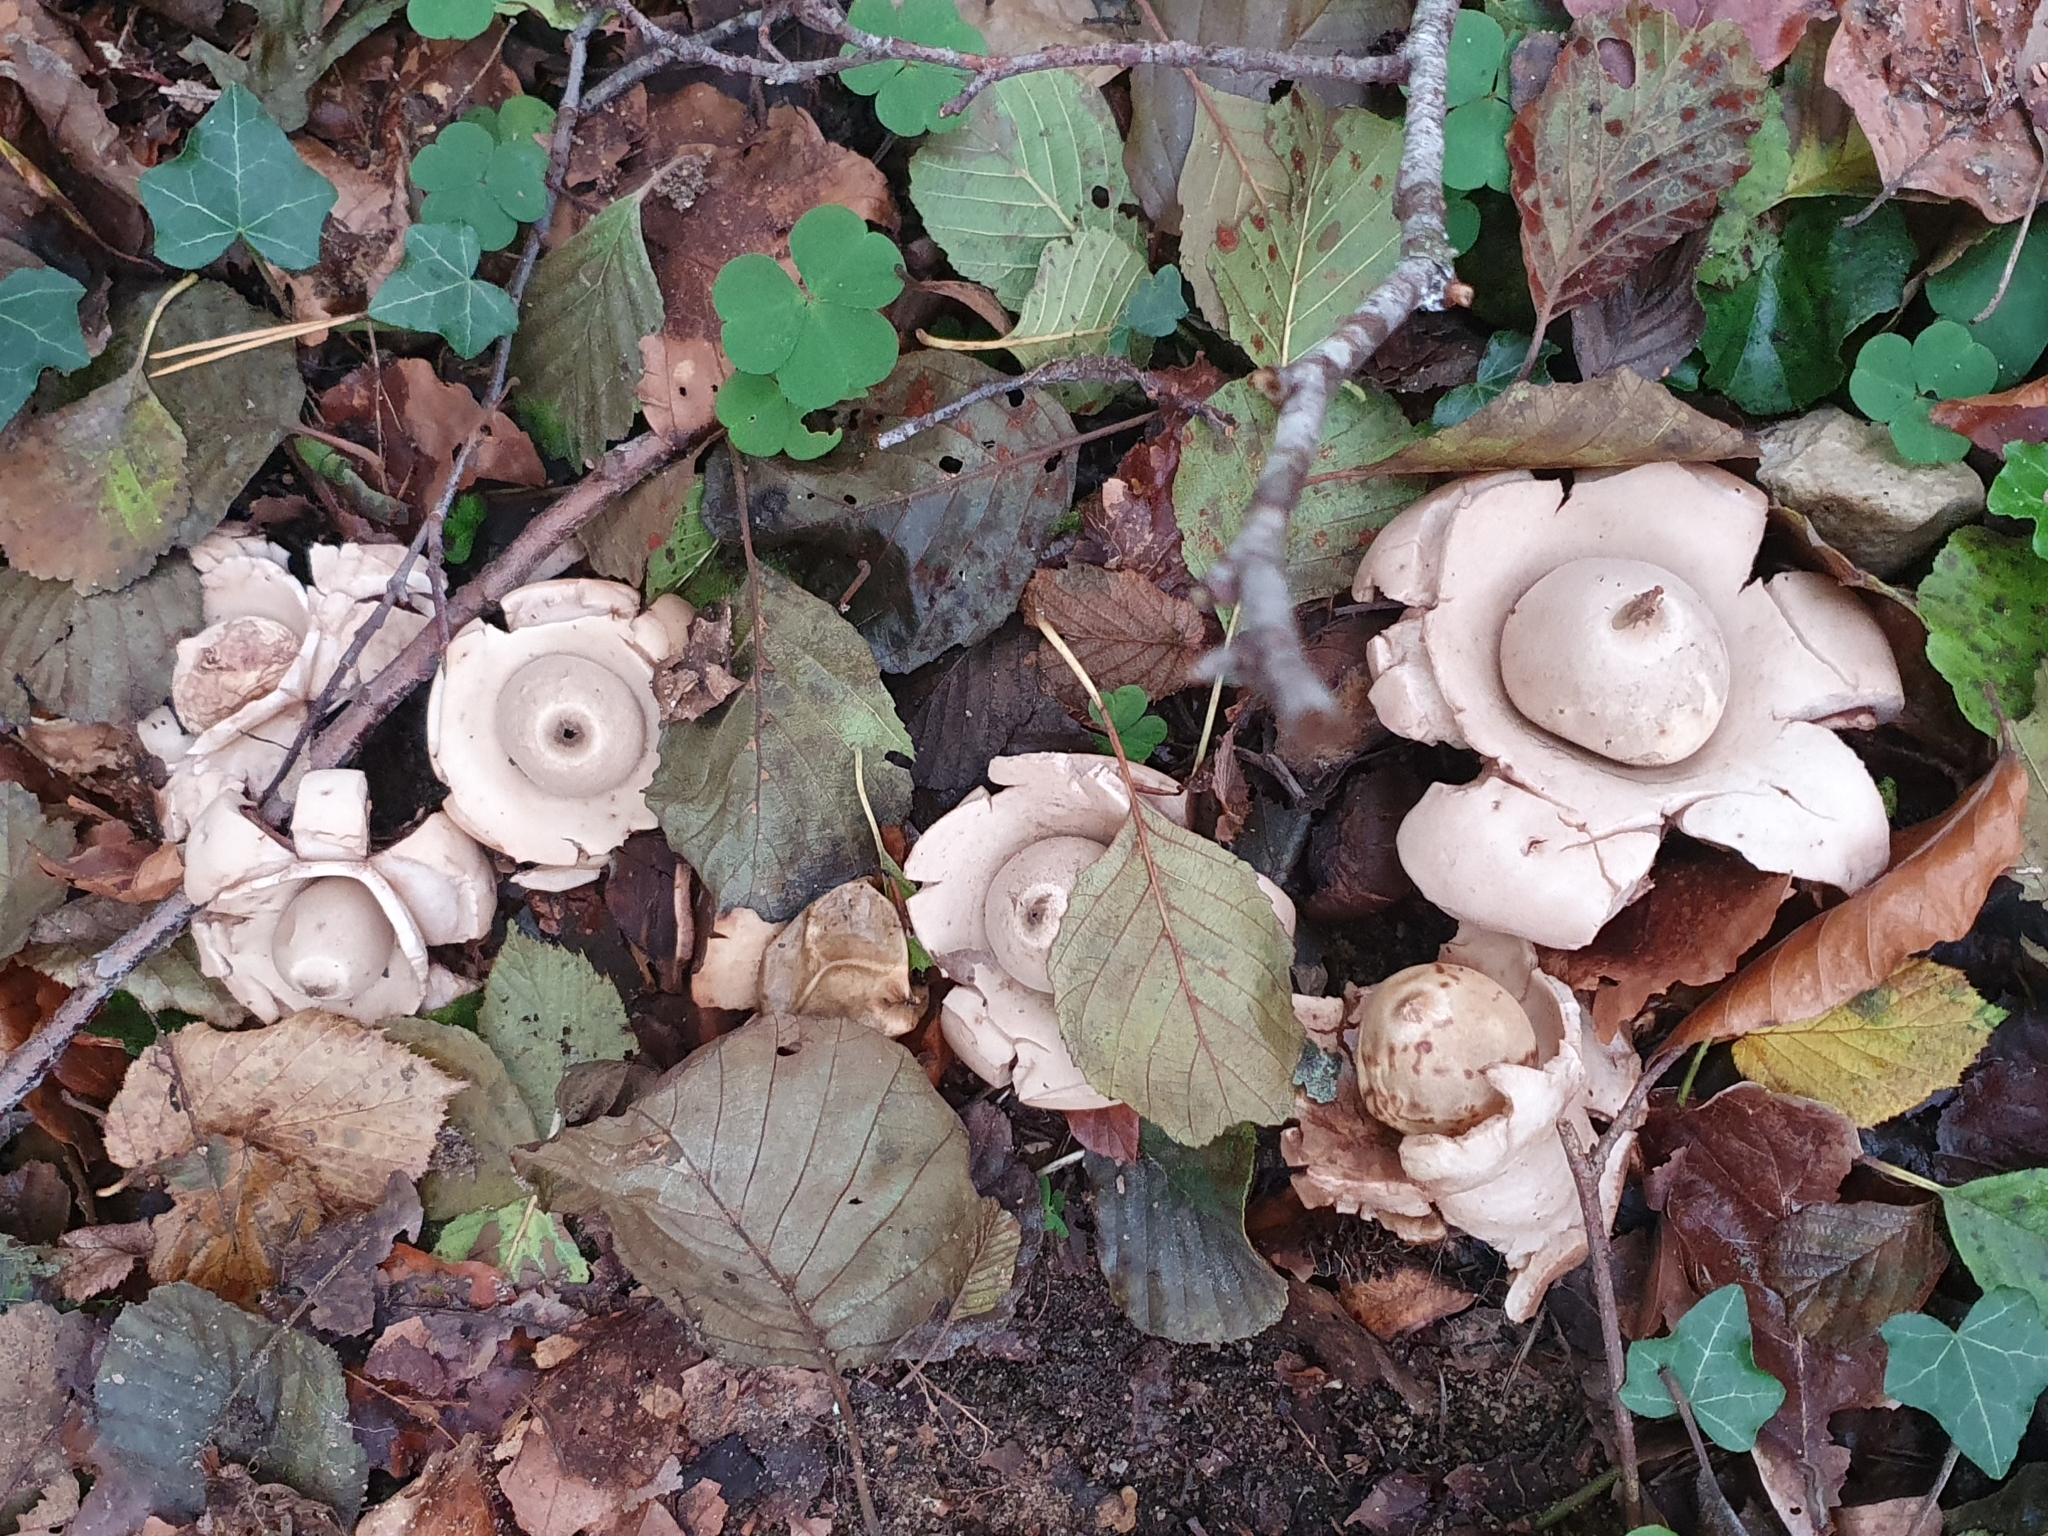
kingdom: Fungi
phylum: Basidiomycota
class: Agaricomycetes
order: Geastrales
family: Geastraceae
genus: Geastrum
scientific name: Geastrum michelianum
